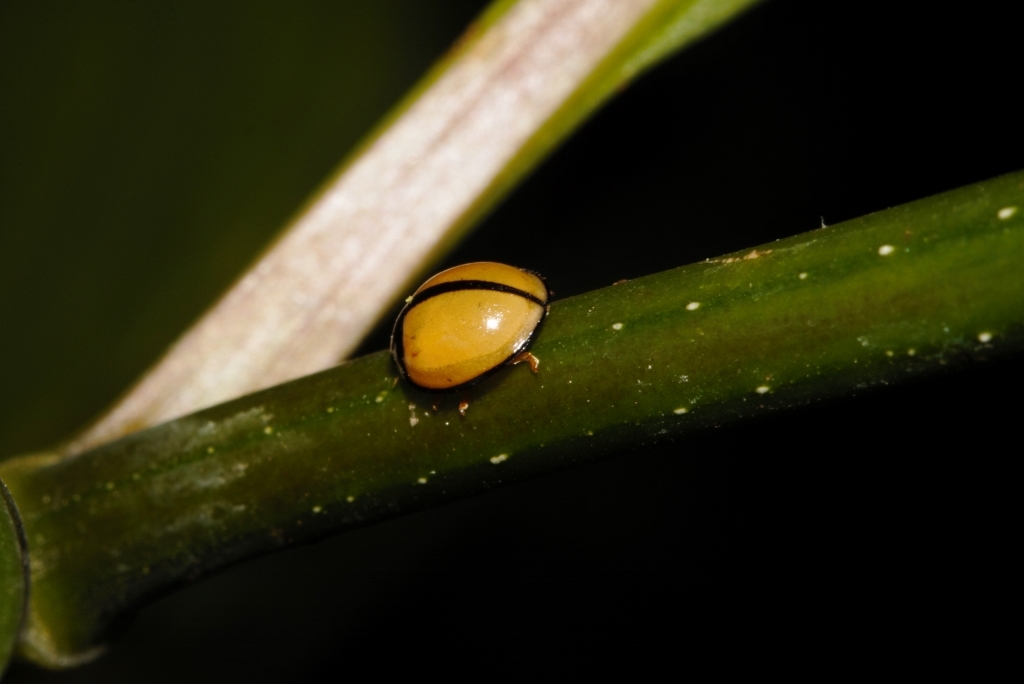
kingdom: Animalia
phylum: Arthropoda
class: Insecta
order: Coleoptera
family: Coccinellidae
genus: Cheilomenes
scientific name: Cheilomenes propinqua
